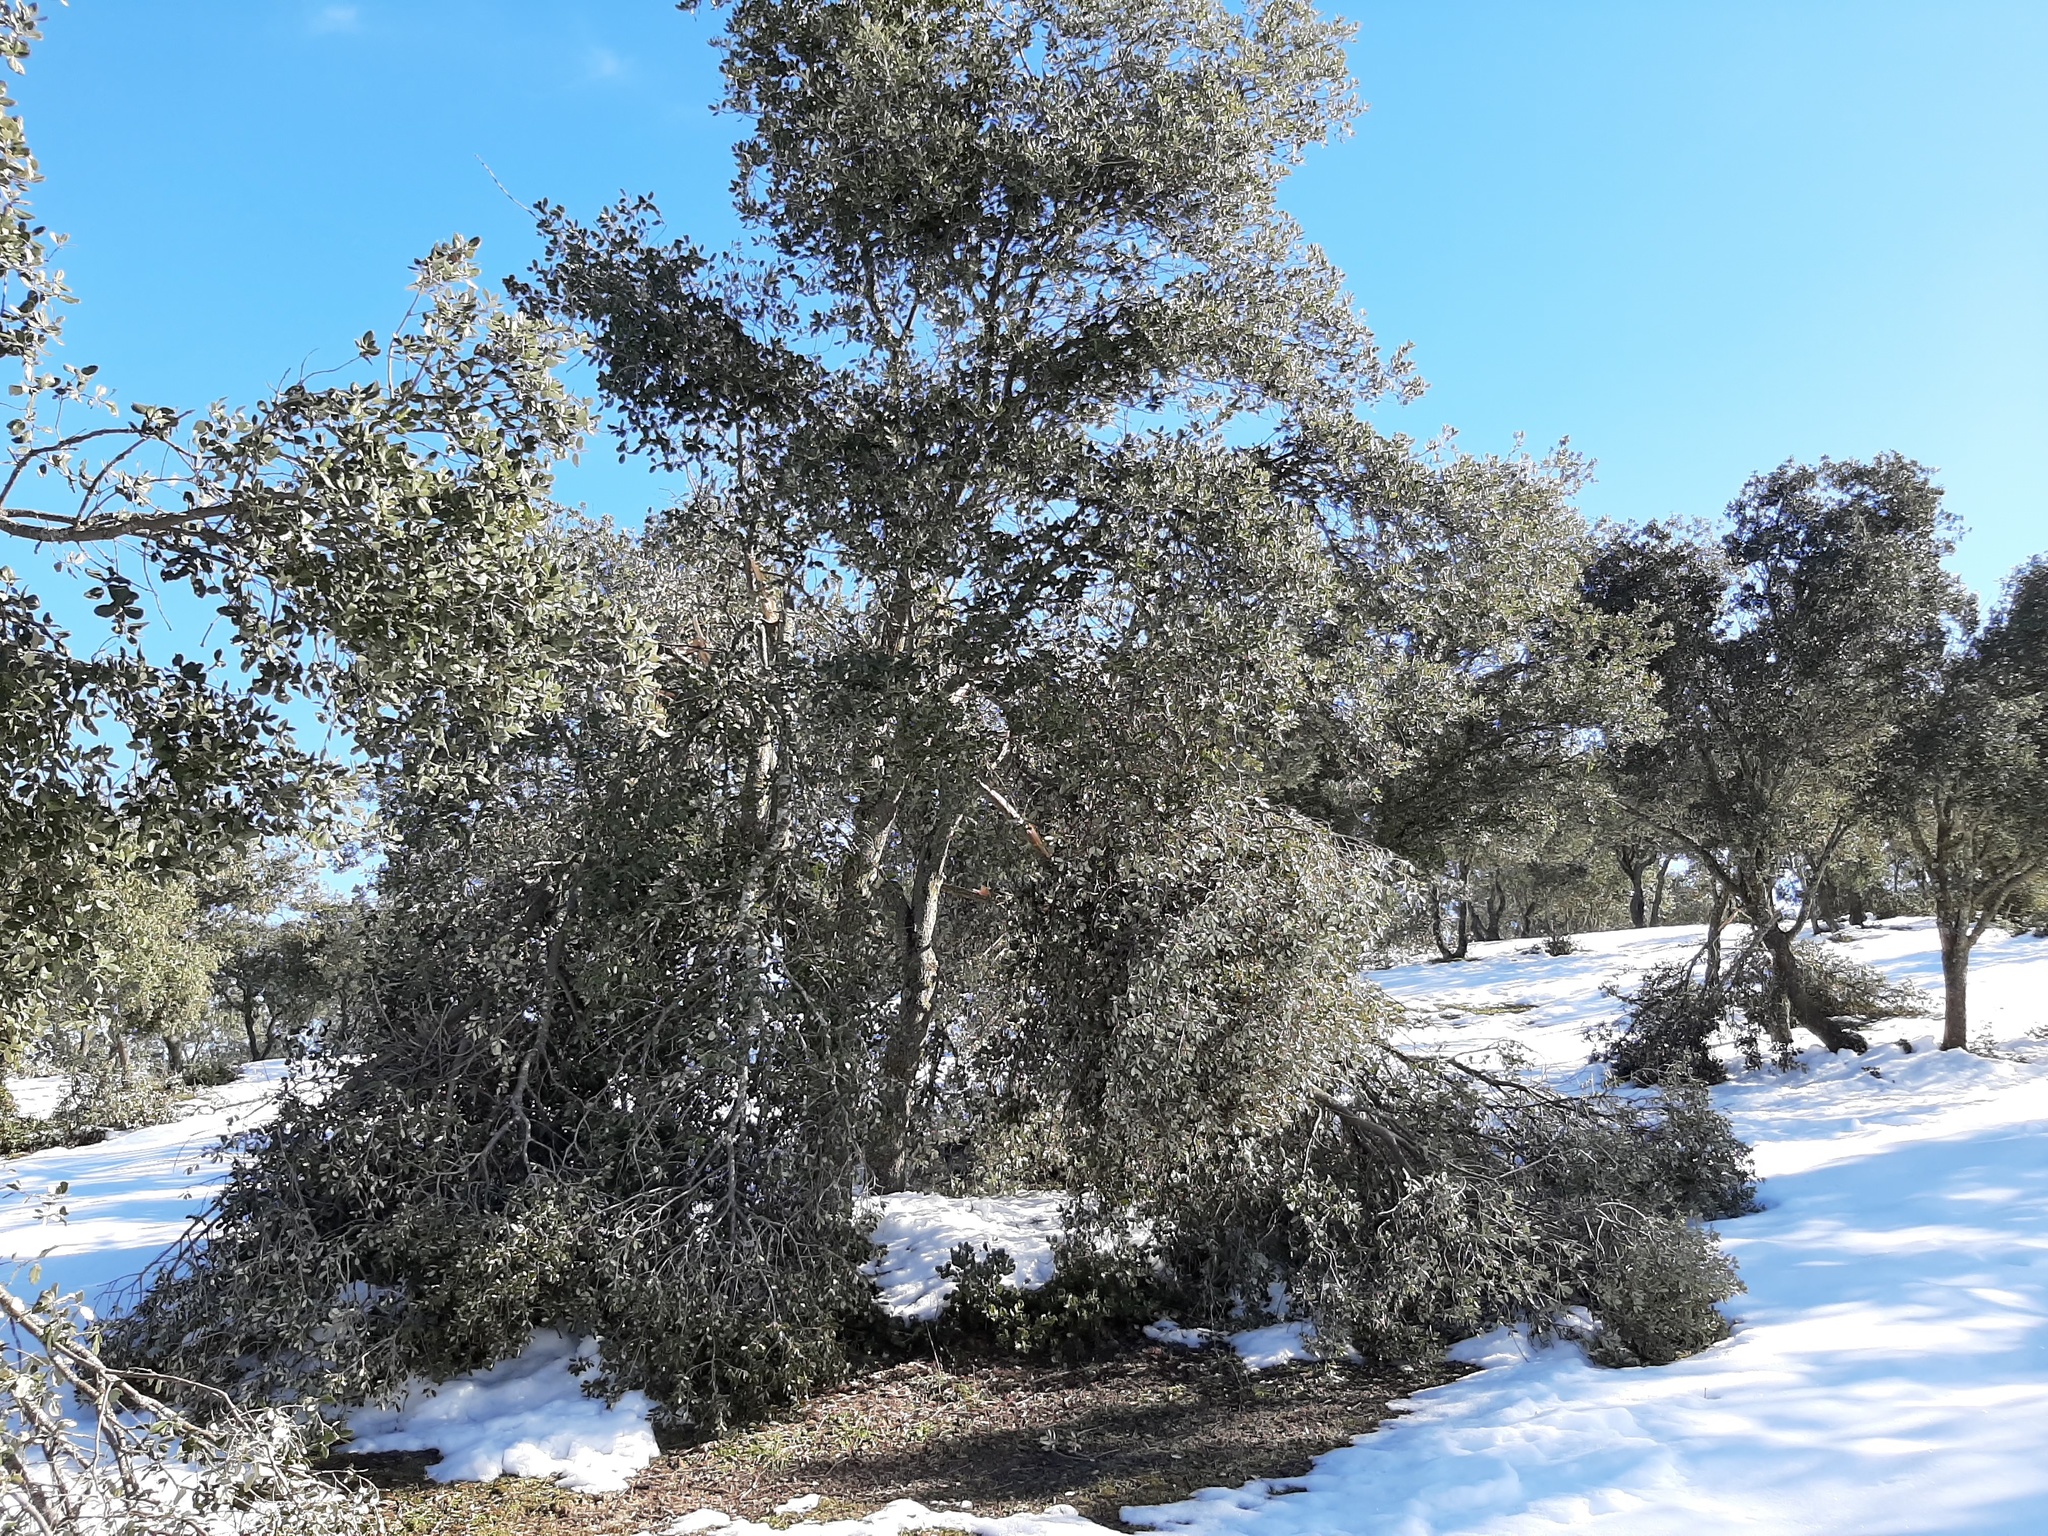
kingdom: Plantae
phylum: Tracheophyta
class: Magnoliopsida
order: Fagales
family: Fagaceae
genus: Quercus
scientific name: Quercus rotundifolia
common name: Holm oak
